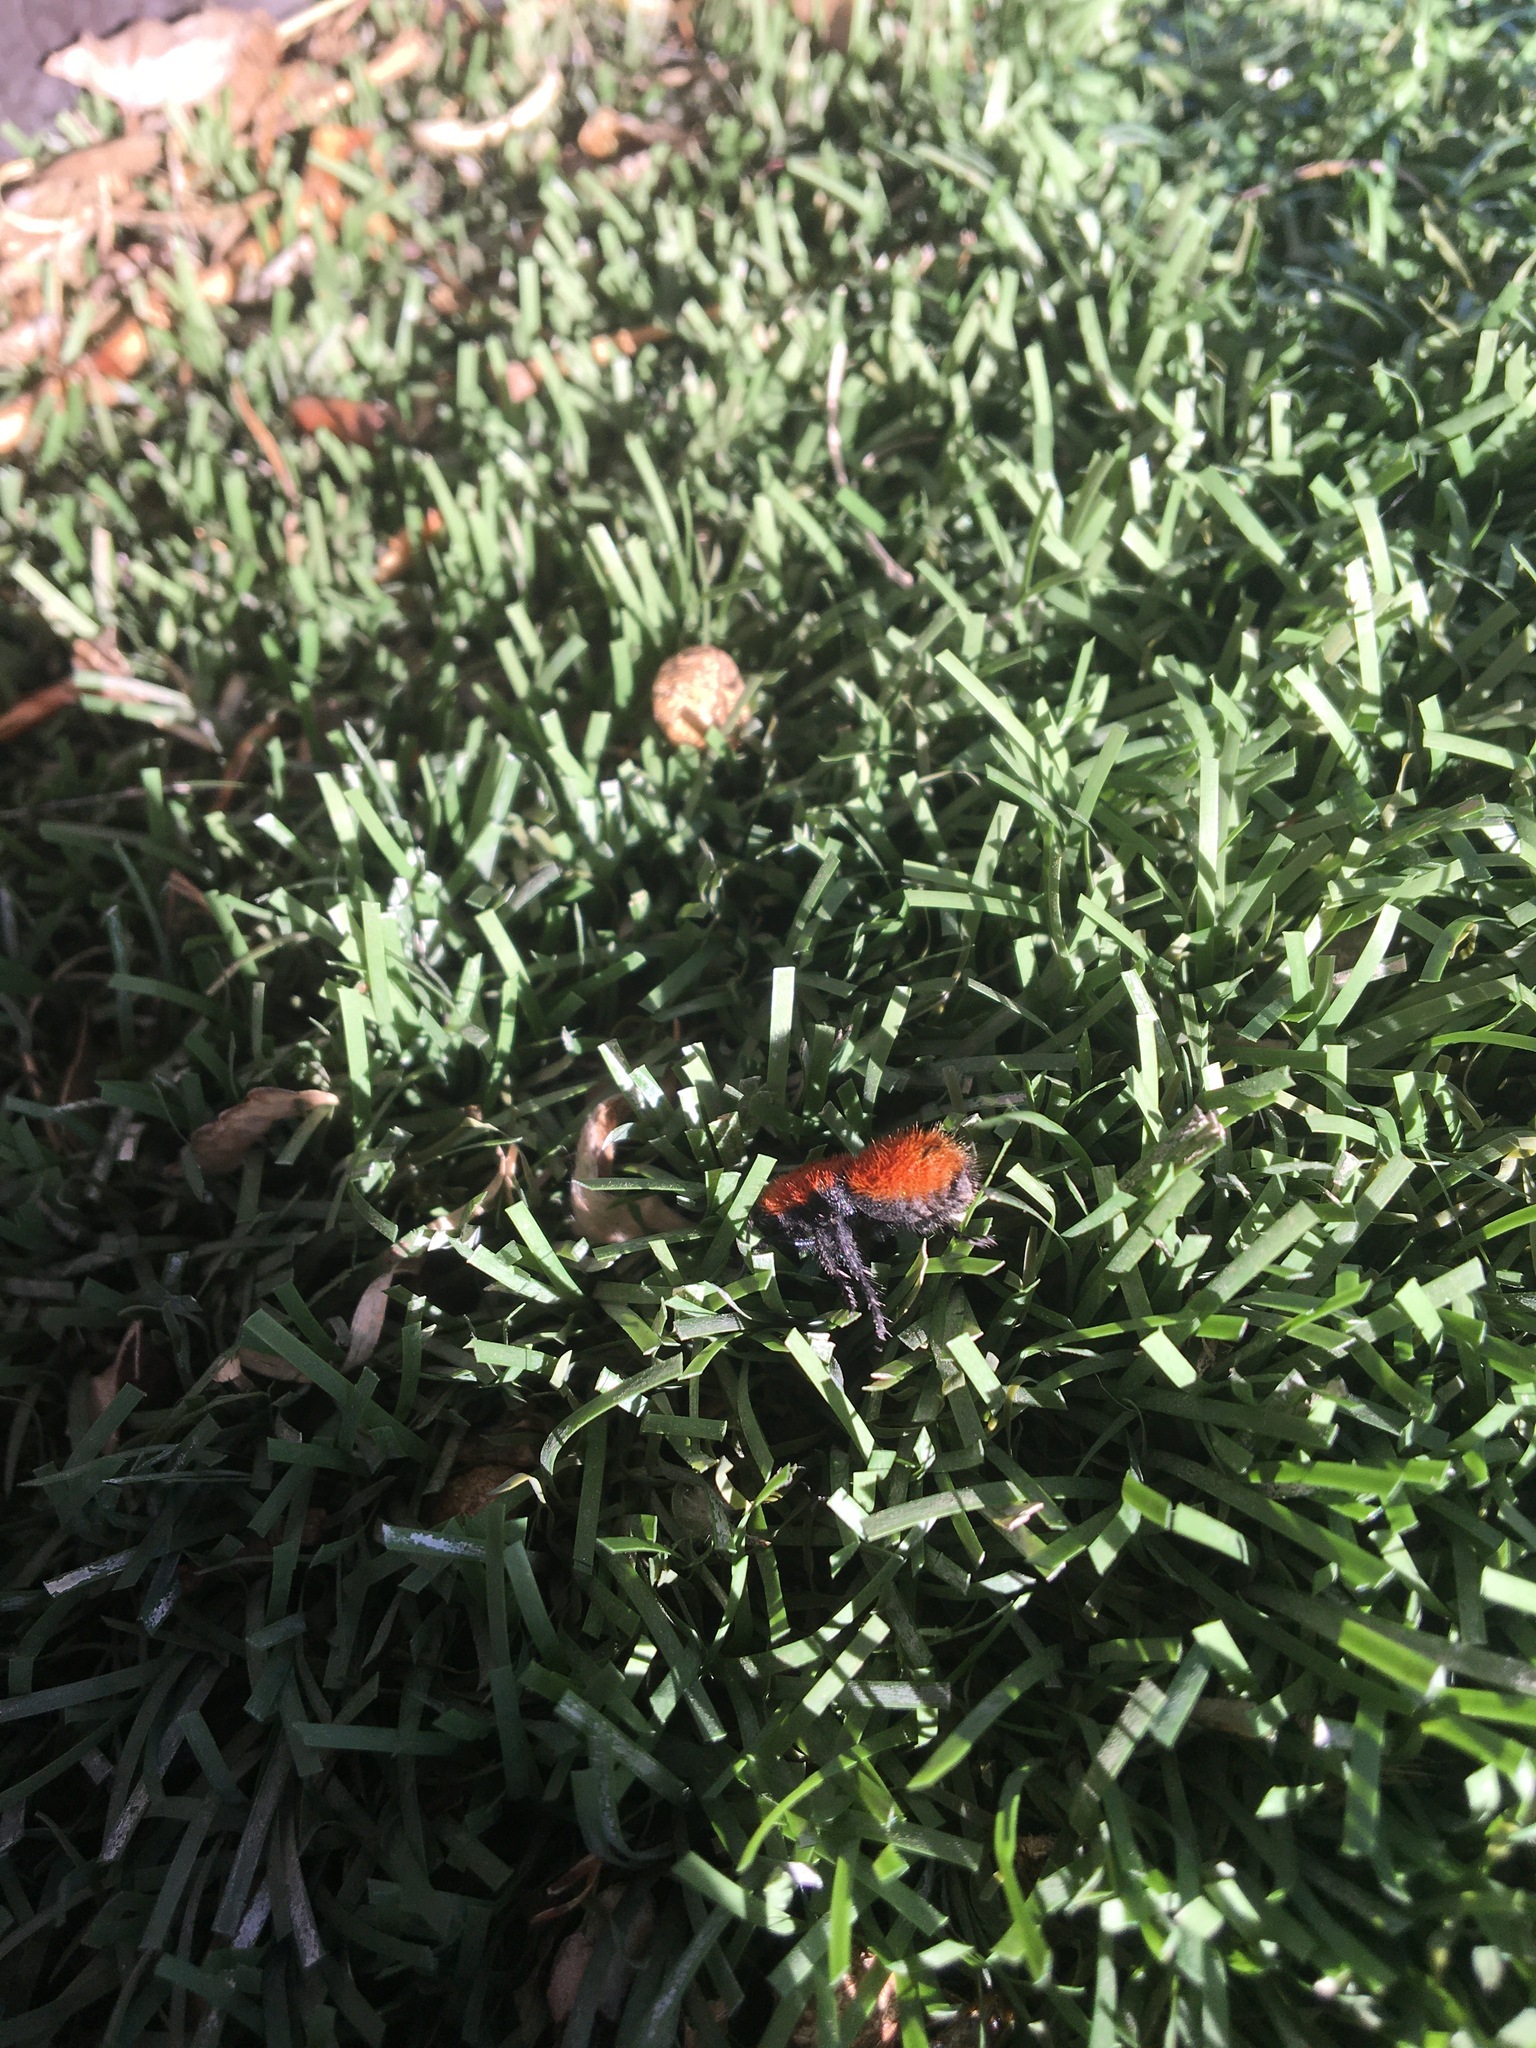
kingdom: Animalia
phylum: Arthropoda
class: Insecta
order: Hymenoptera
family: Mutillidae
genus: Dasymutilla
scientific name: Dasymutilla vestita
